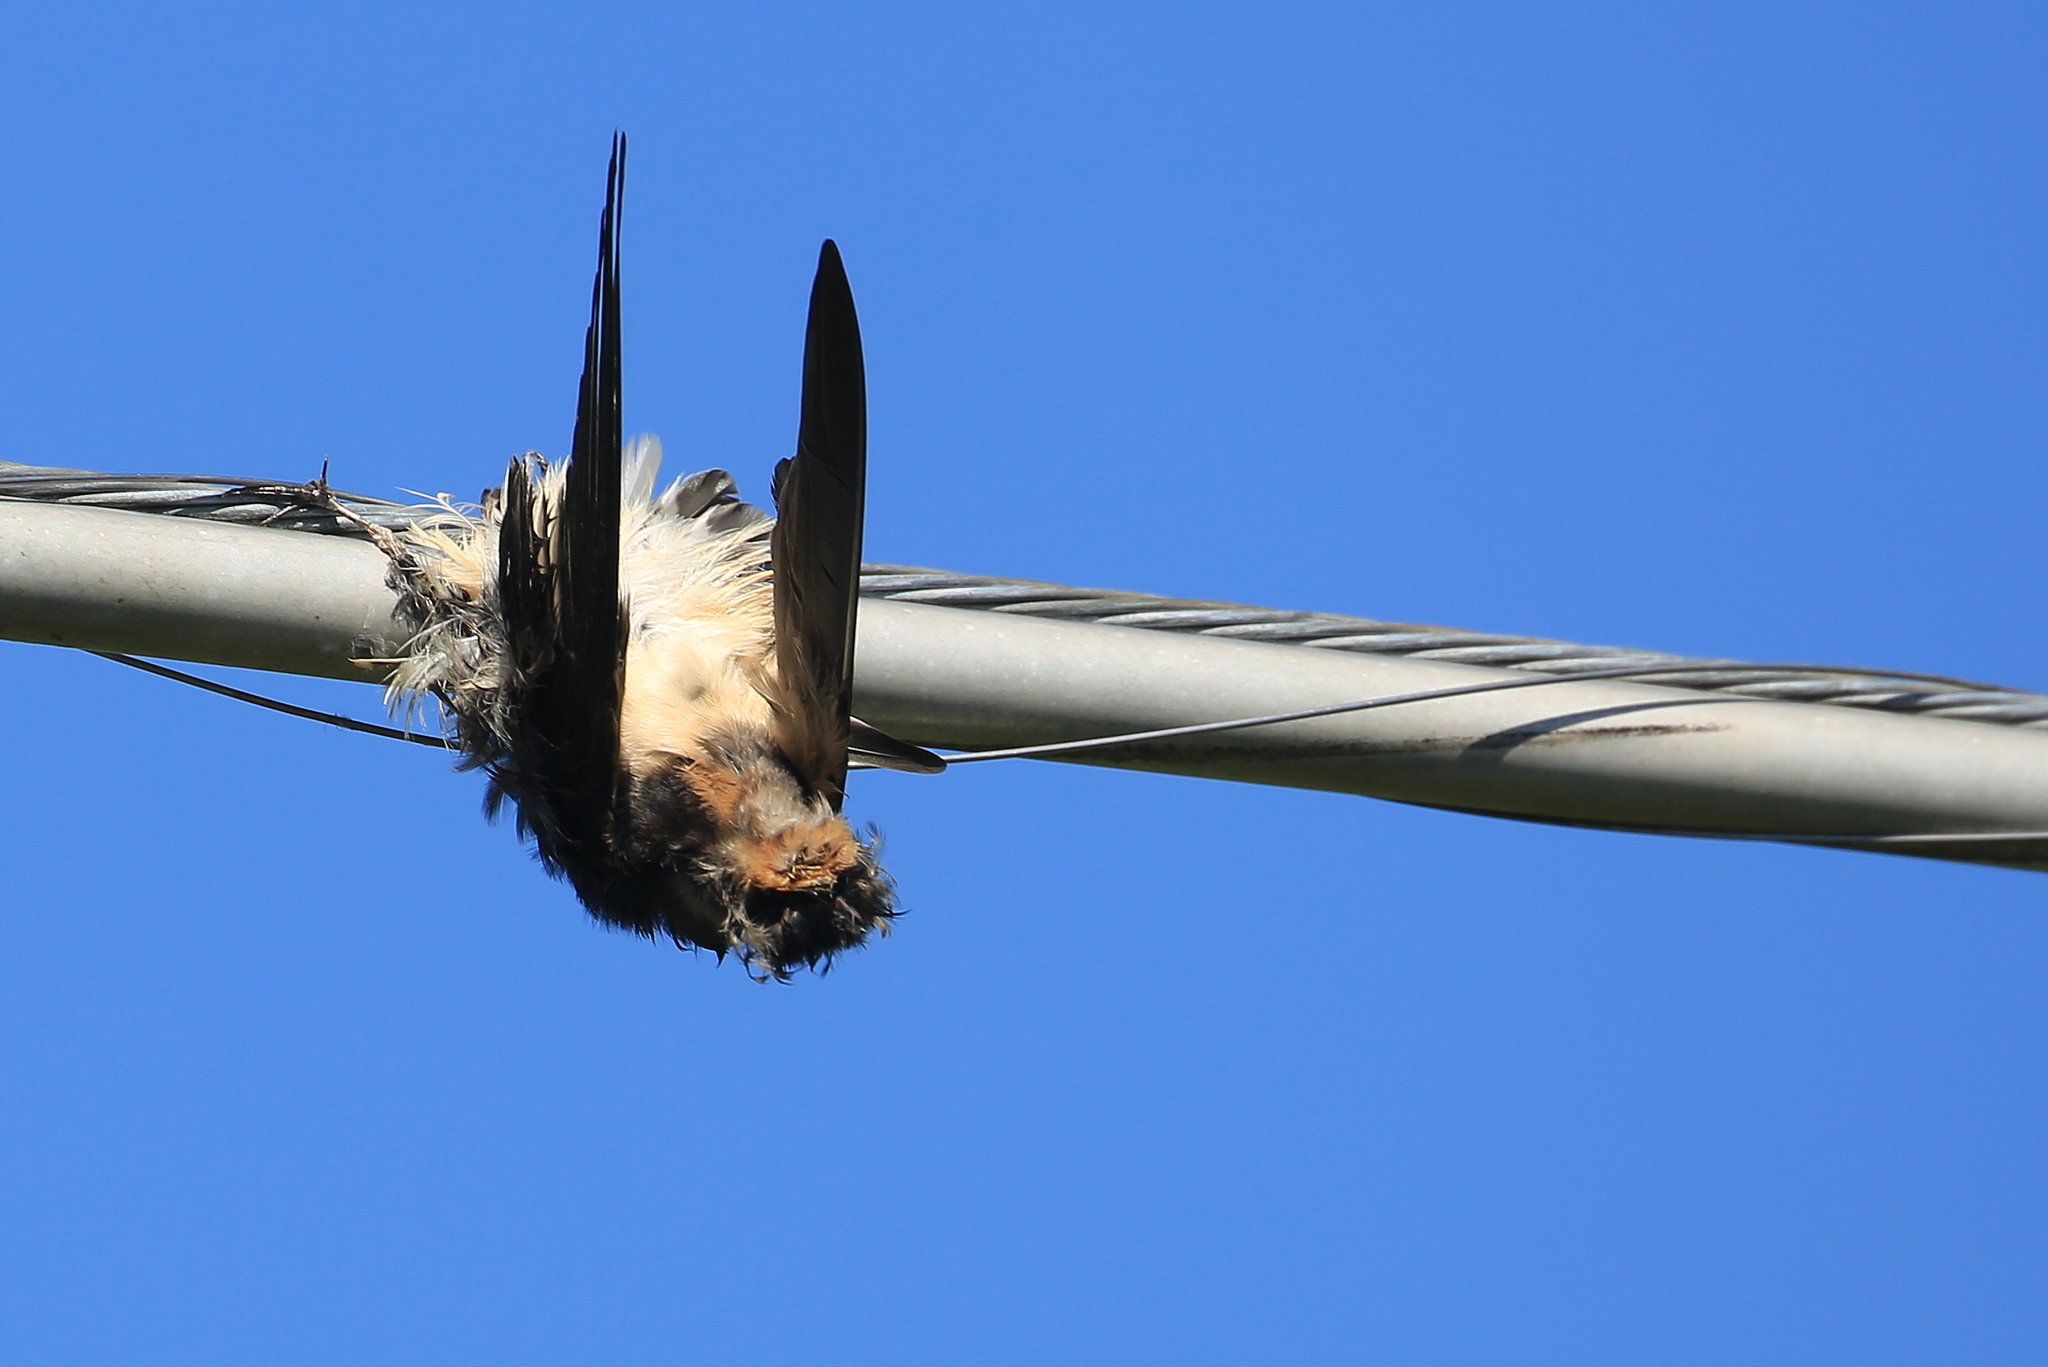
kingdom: Animalia
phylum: Chordata
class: Aves
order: Passeriformes
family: Hirundinidae
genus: Hirundo
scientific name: Hirundo rustica
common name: Barn swallow
